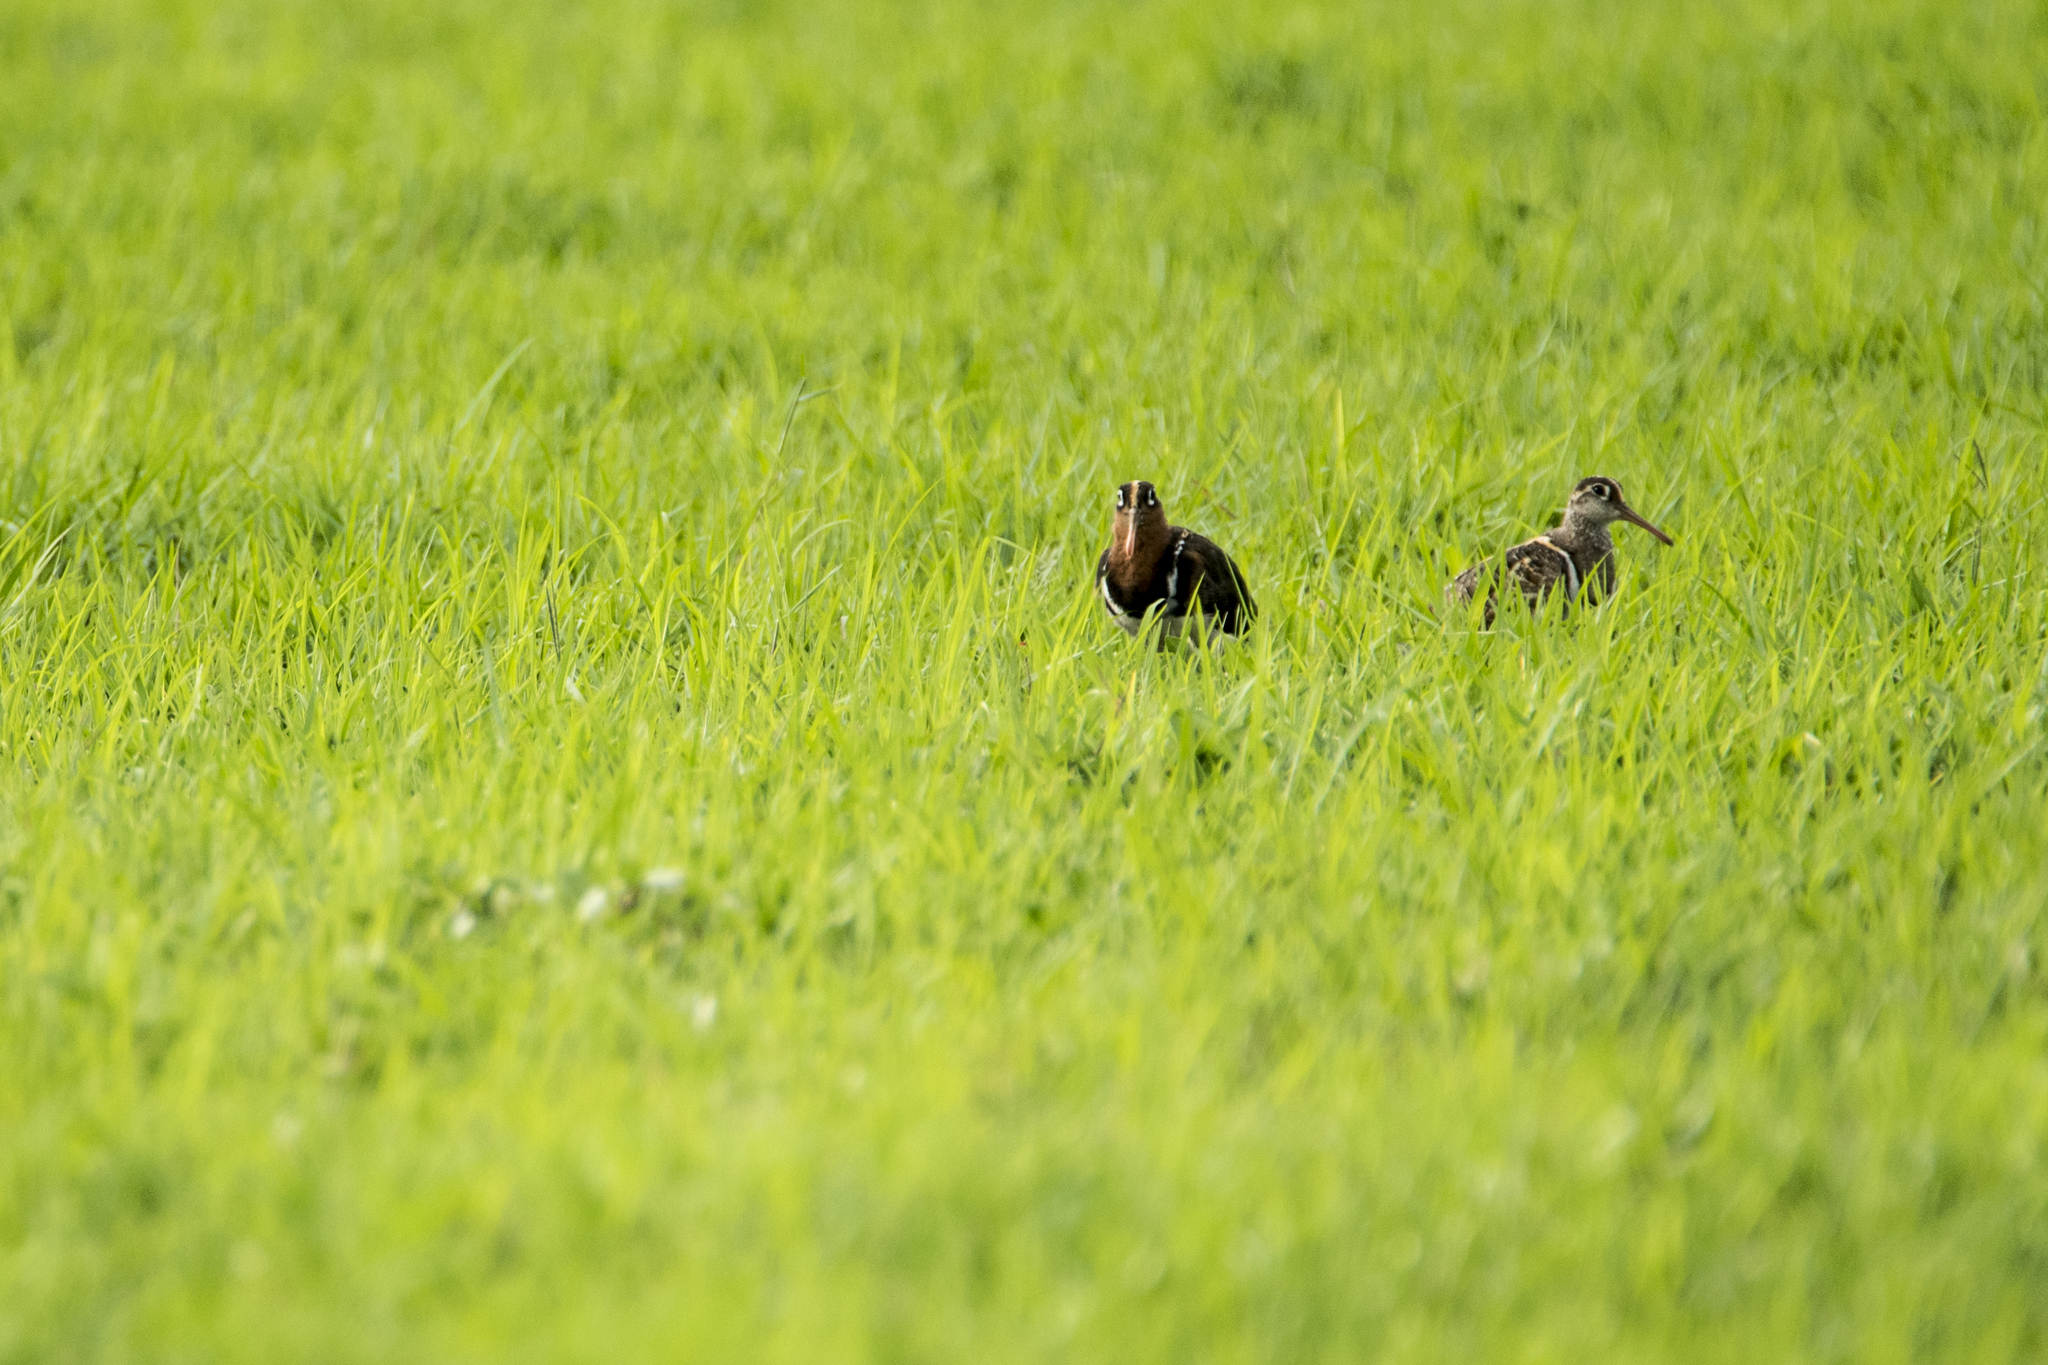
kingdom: Animalia
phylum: Chordata
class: Aves
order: Charadriiformes
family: Rostratulidae
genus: Rostratula
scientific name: Rostratula benghalensis
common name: Greater painted-snipe
